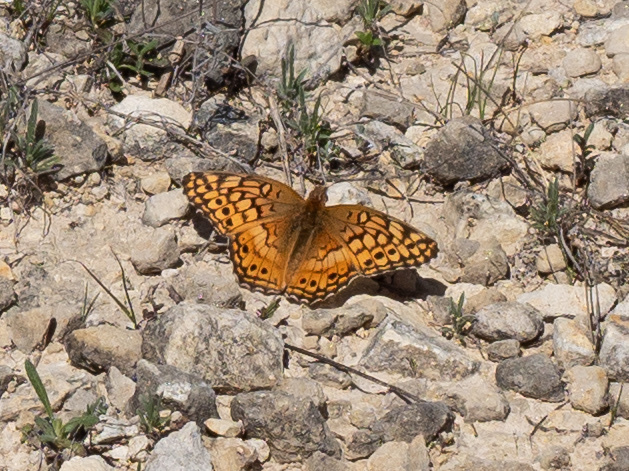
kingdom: Animalia
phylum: Arthropoda
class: Insecta
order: Lepidoptera
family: Nymphalidae
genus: Euptoieta
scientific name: Euptoieta claudia
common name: Variegated fritillary
